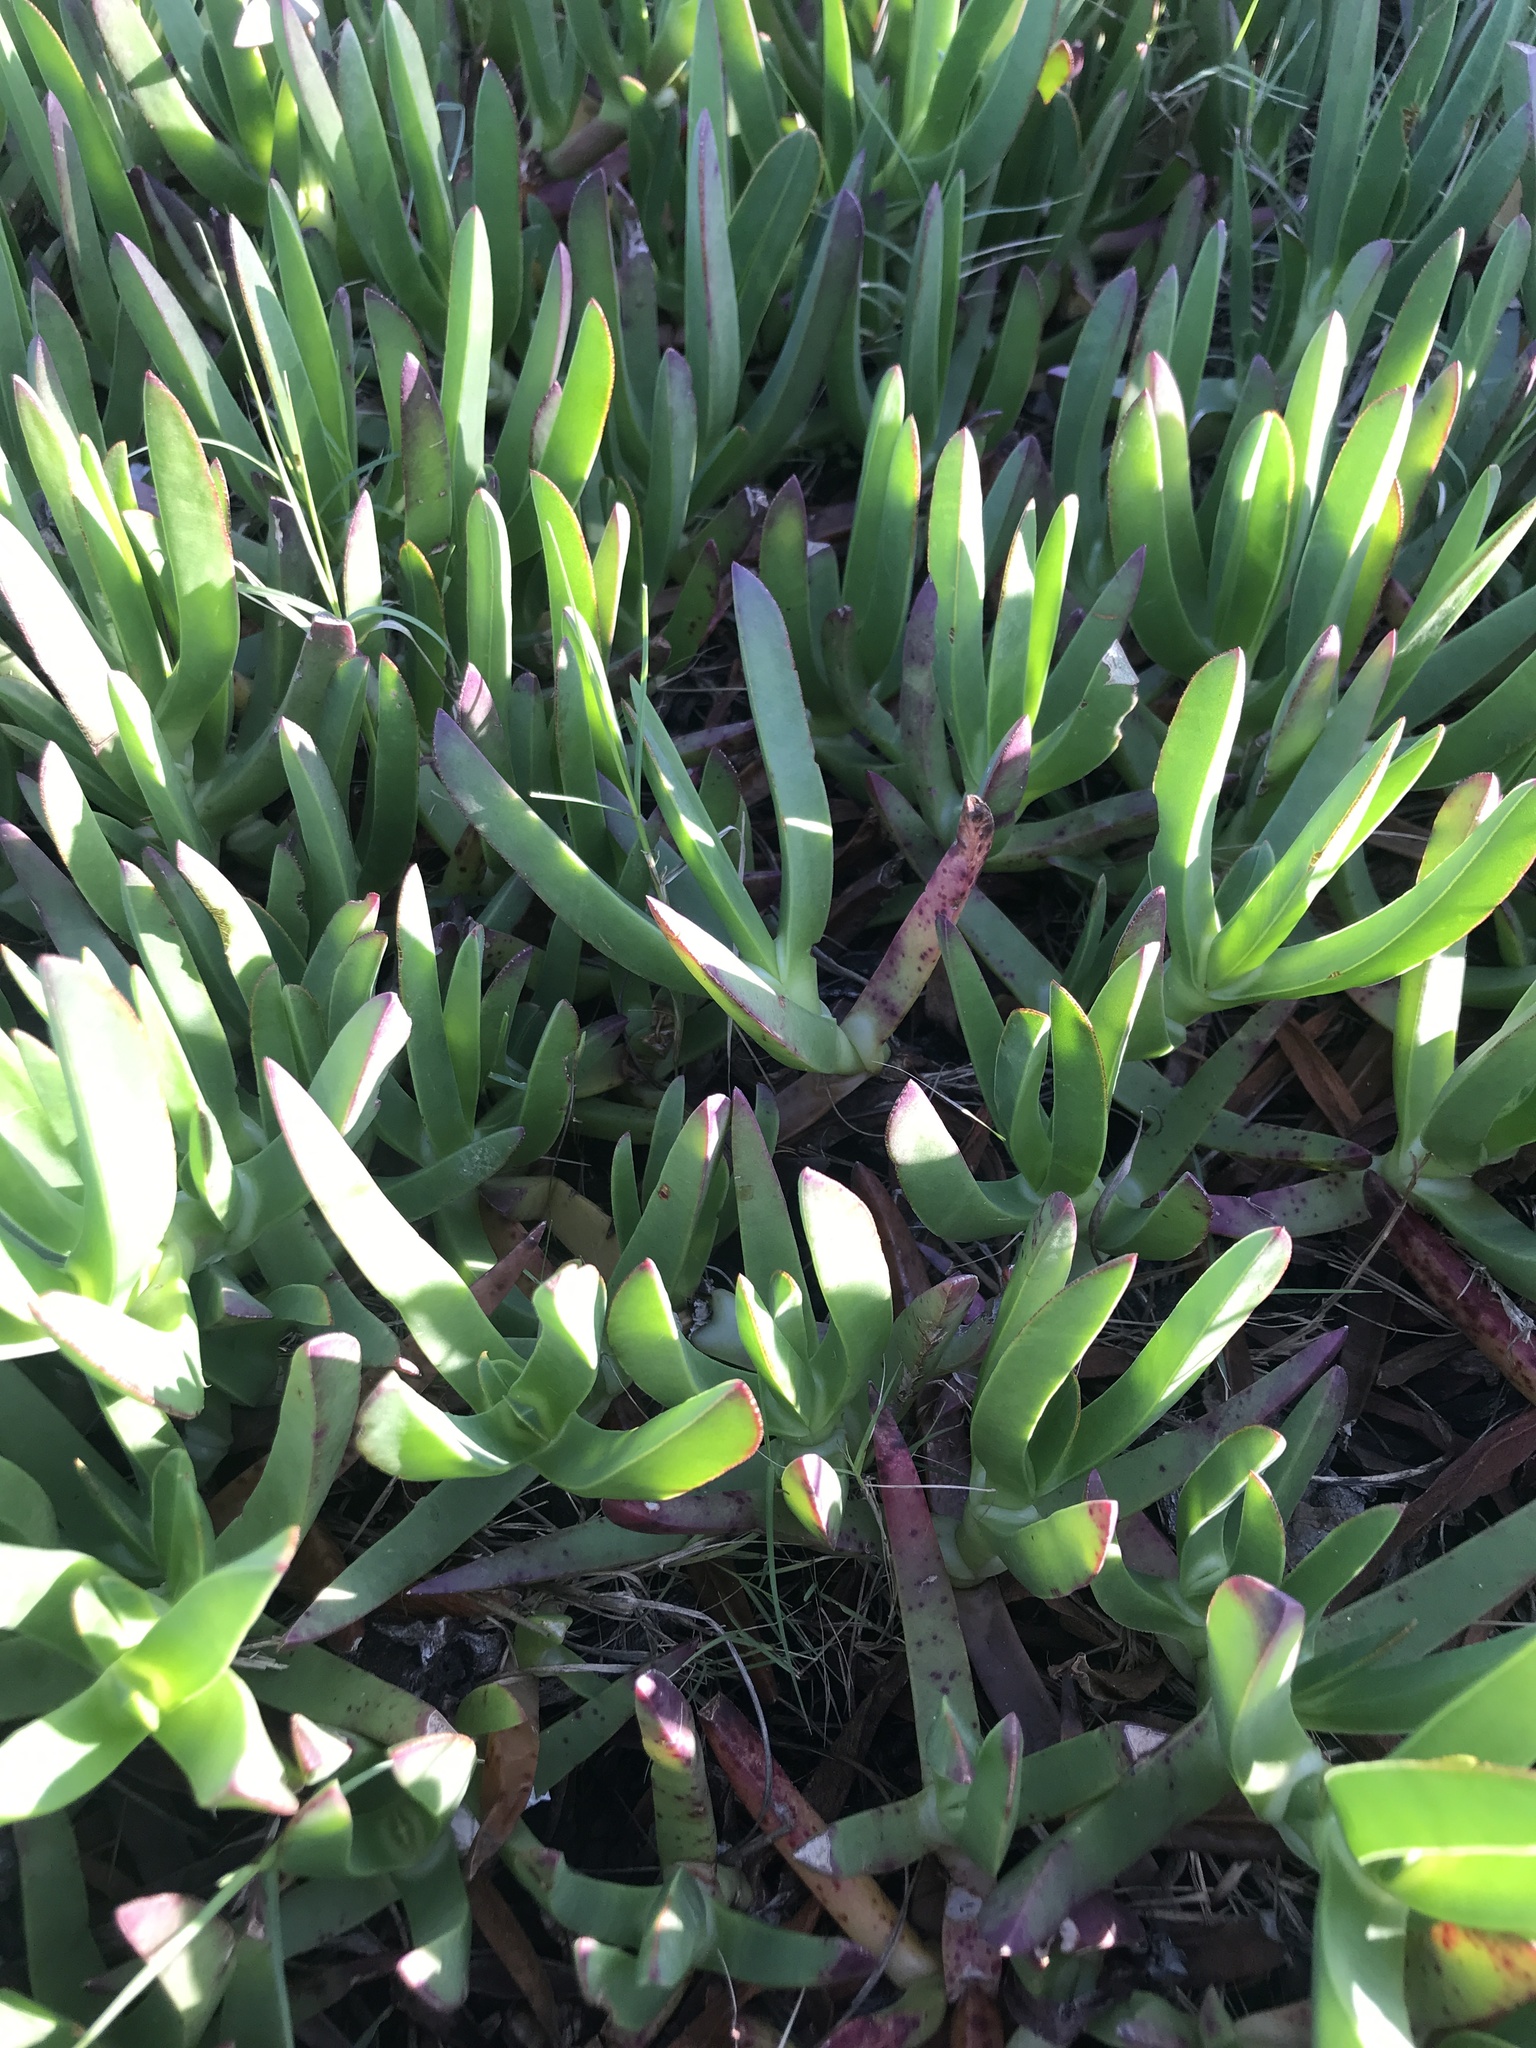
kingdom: Plantae
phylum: Tracheophyta
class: Magnoliopsida
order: Caryophyllales
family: Aizoaceae
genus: Carpobrotus
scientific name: Carpobrotus edulis
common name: Hottentot-fig
